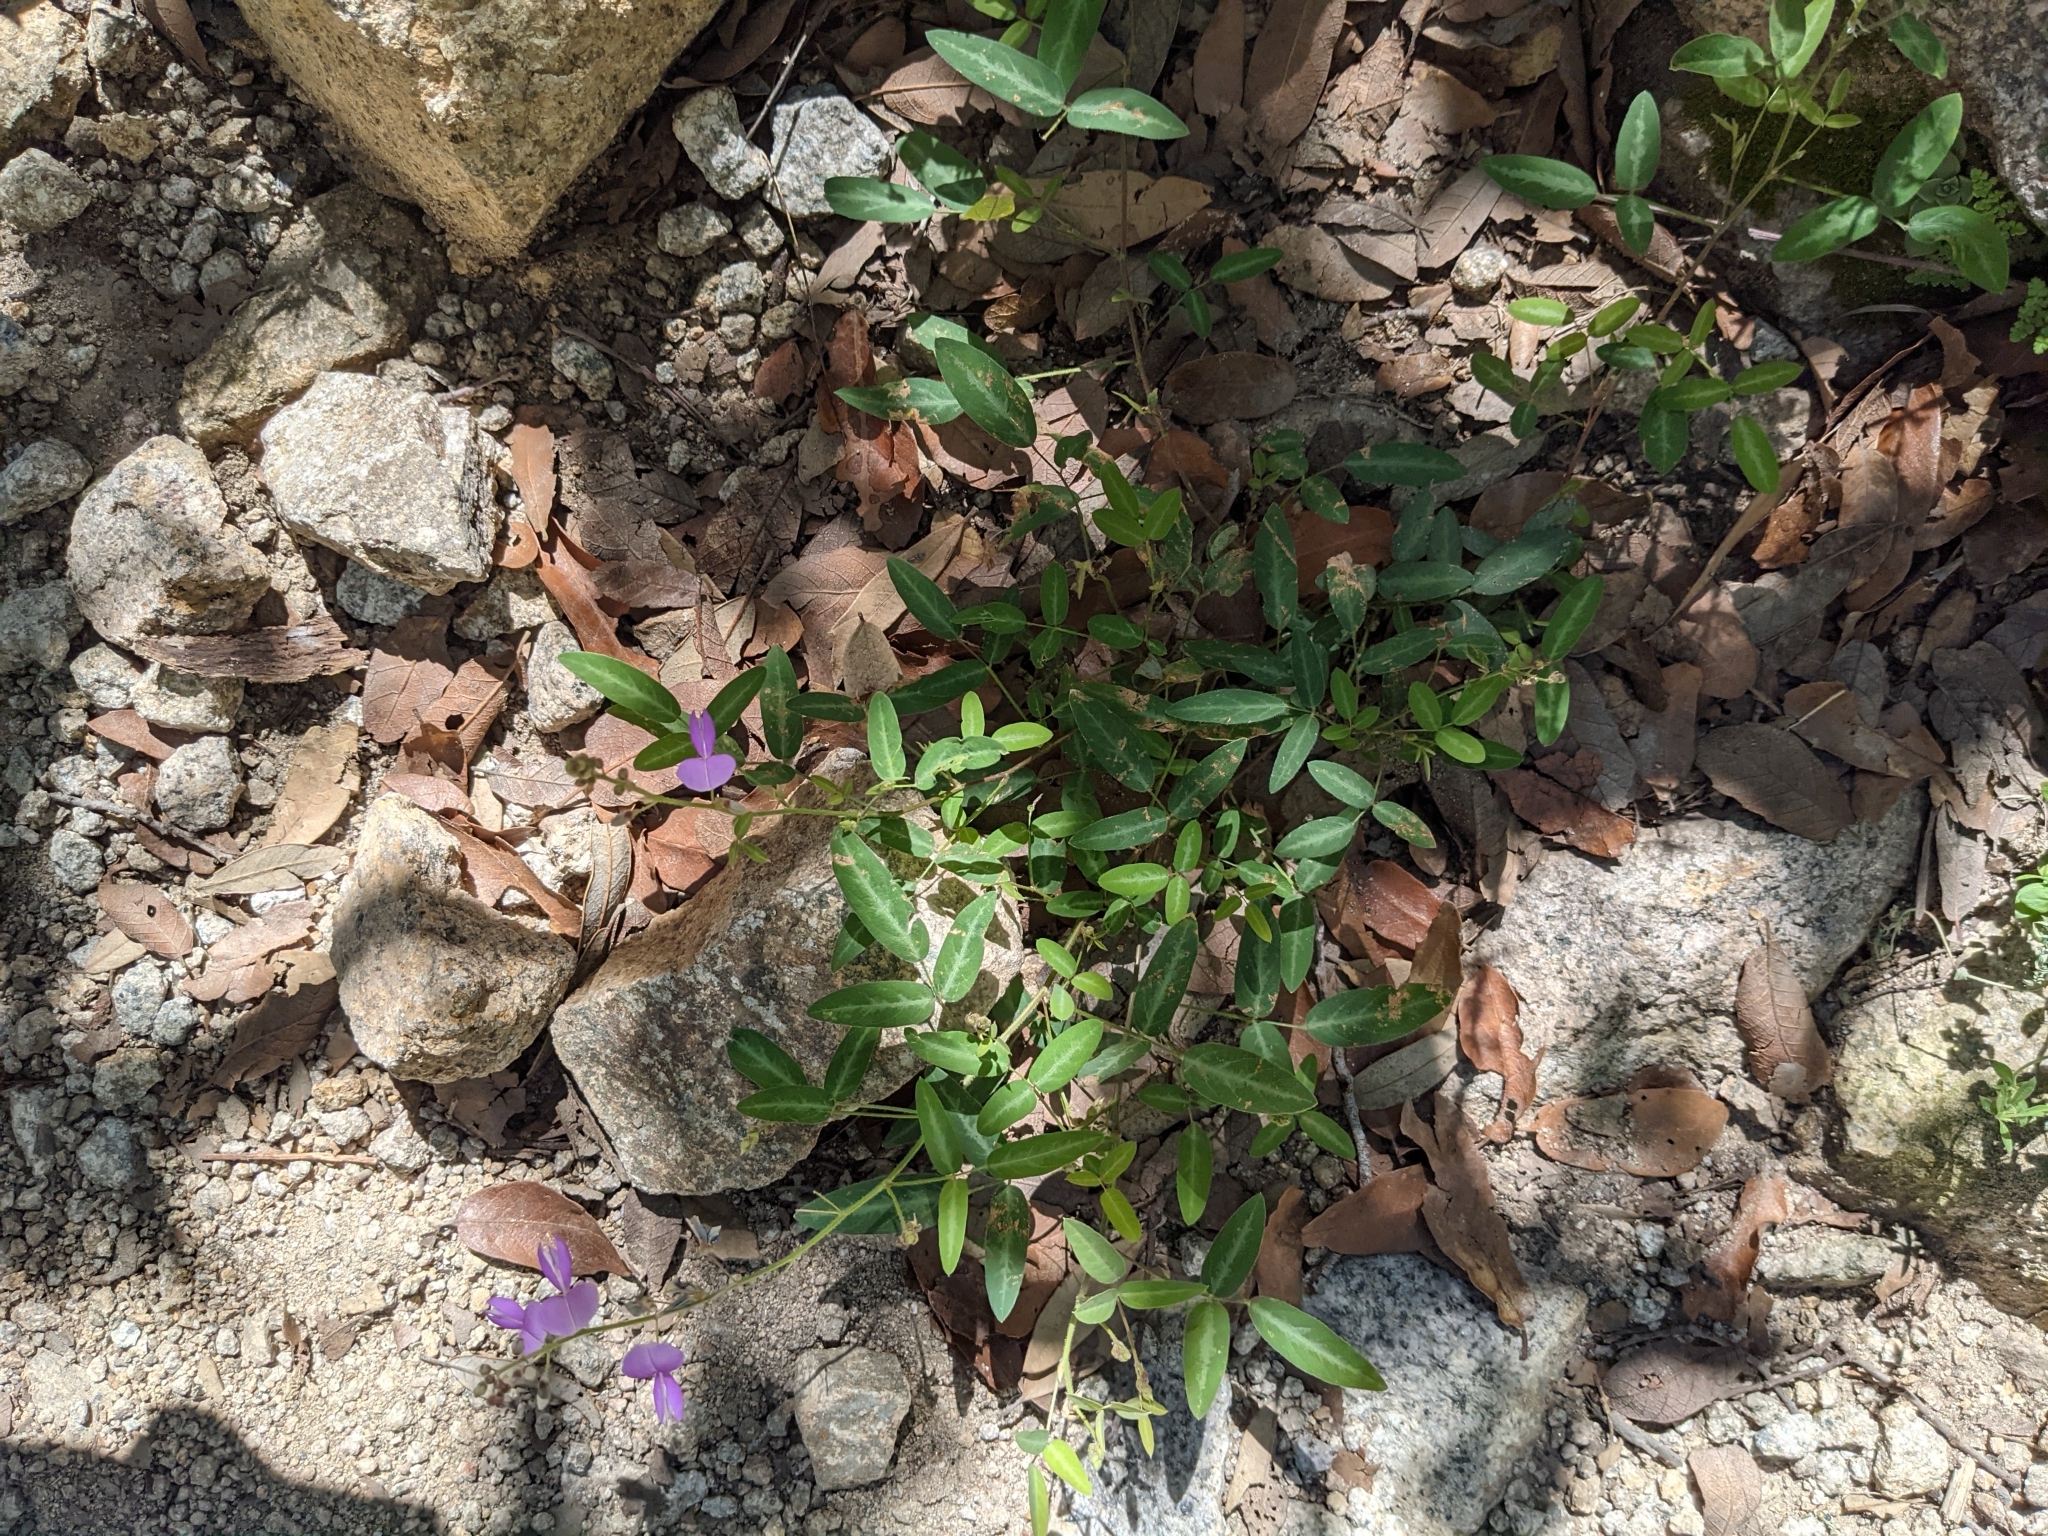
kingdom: Plantae
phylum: Tracheophyta
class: Magnoliopsida
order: Fabales
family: Fabaceae
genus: Desmodium
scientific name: Desmodium batocaulon
